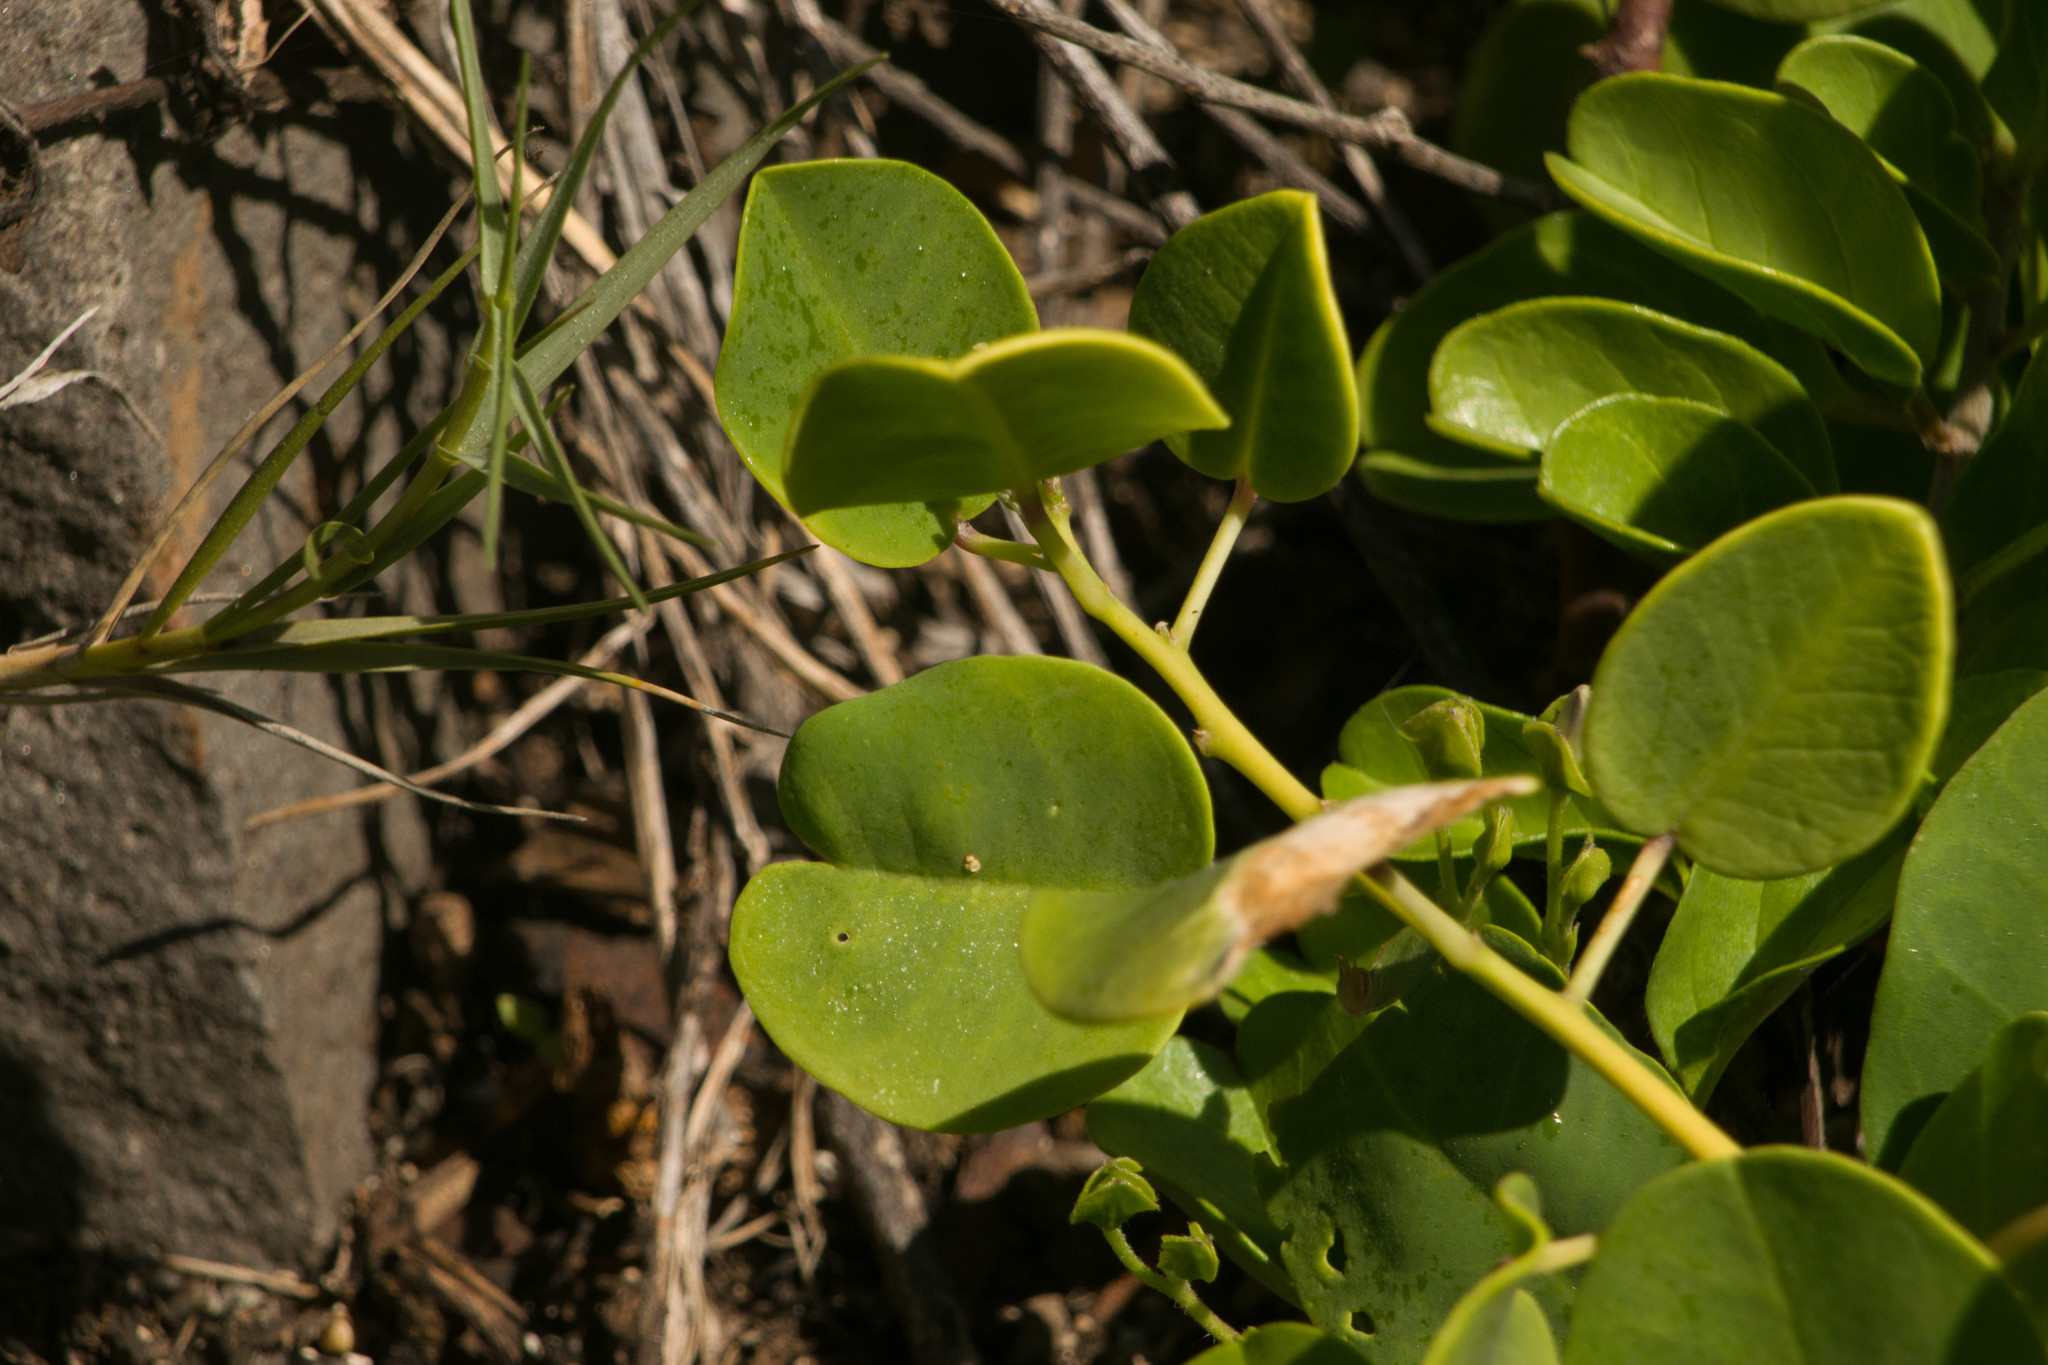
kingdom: Plantae
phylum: Tracheophyta
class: Magnoliopsida
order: Brassicales
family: Capparaceae
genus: Capparis
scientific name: Capparis spinosa
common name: Caper
